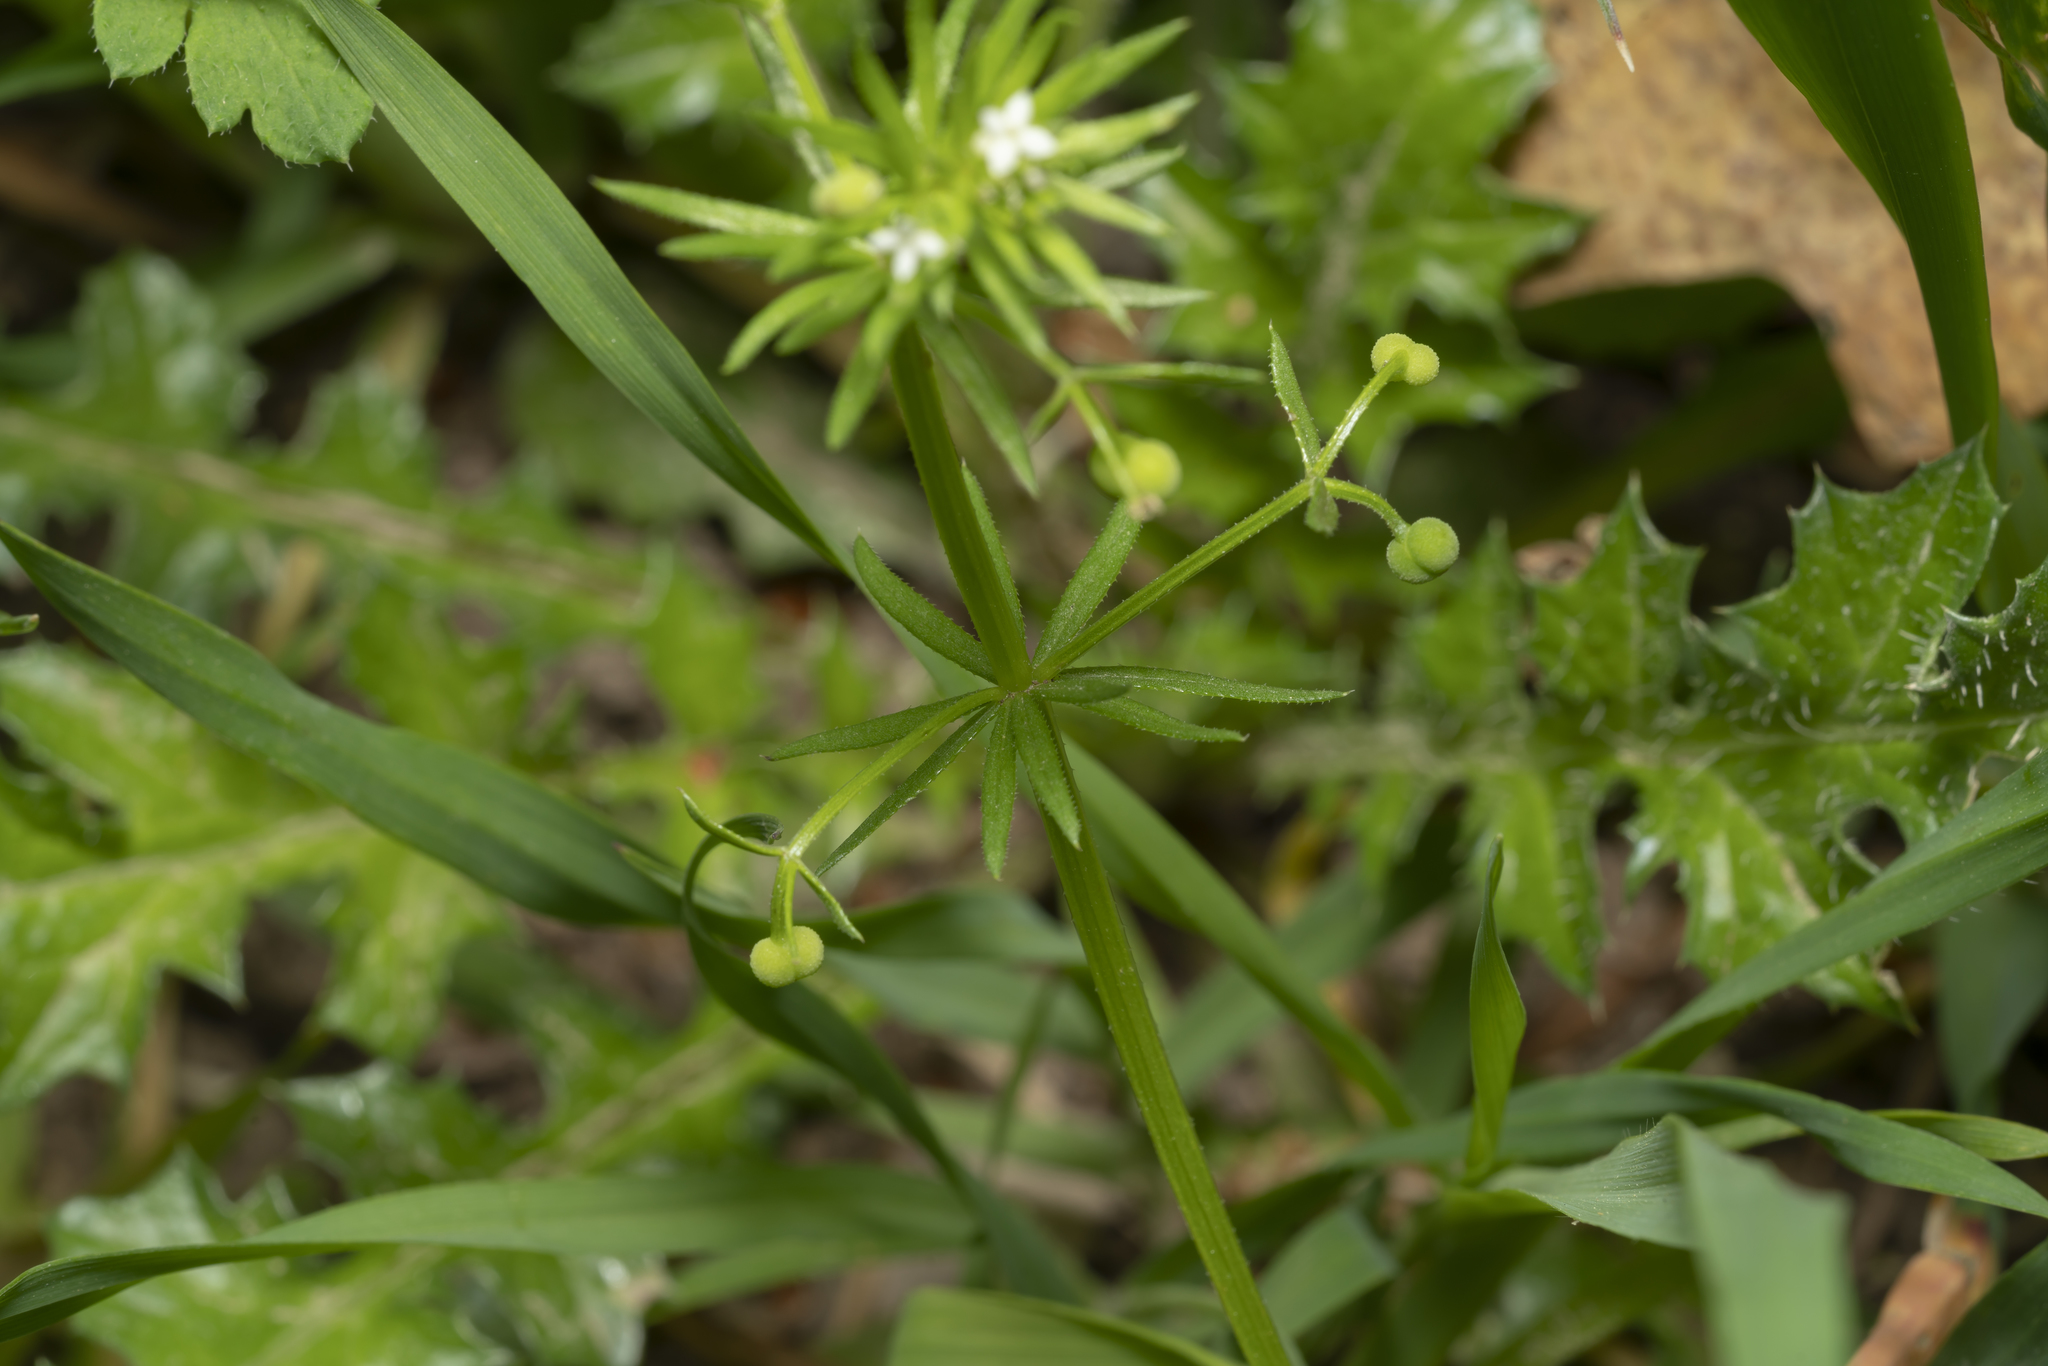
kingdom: Plantae
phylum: Tracheophyta
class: Magnoliopsida
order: Gentianales
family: Rubiaceae
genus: Galium
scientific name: Galium tricornutum
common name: Corn cleavers
